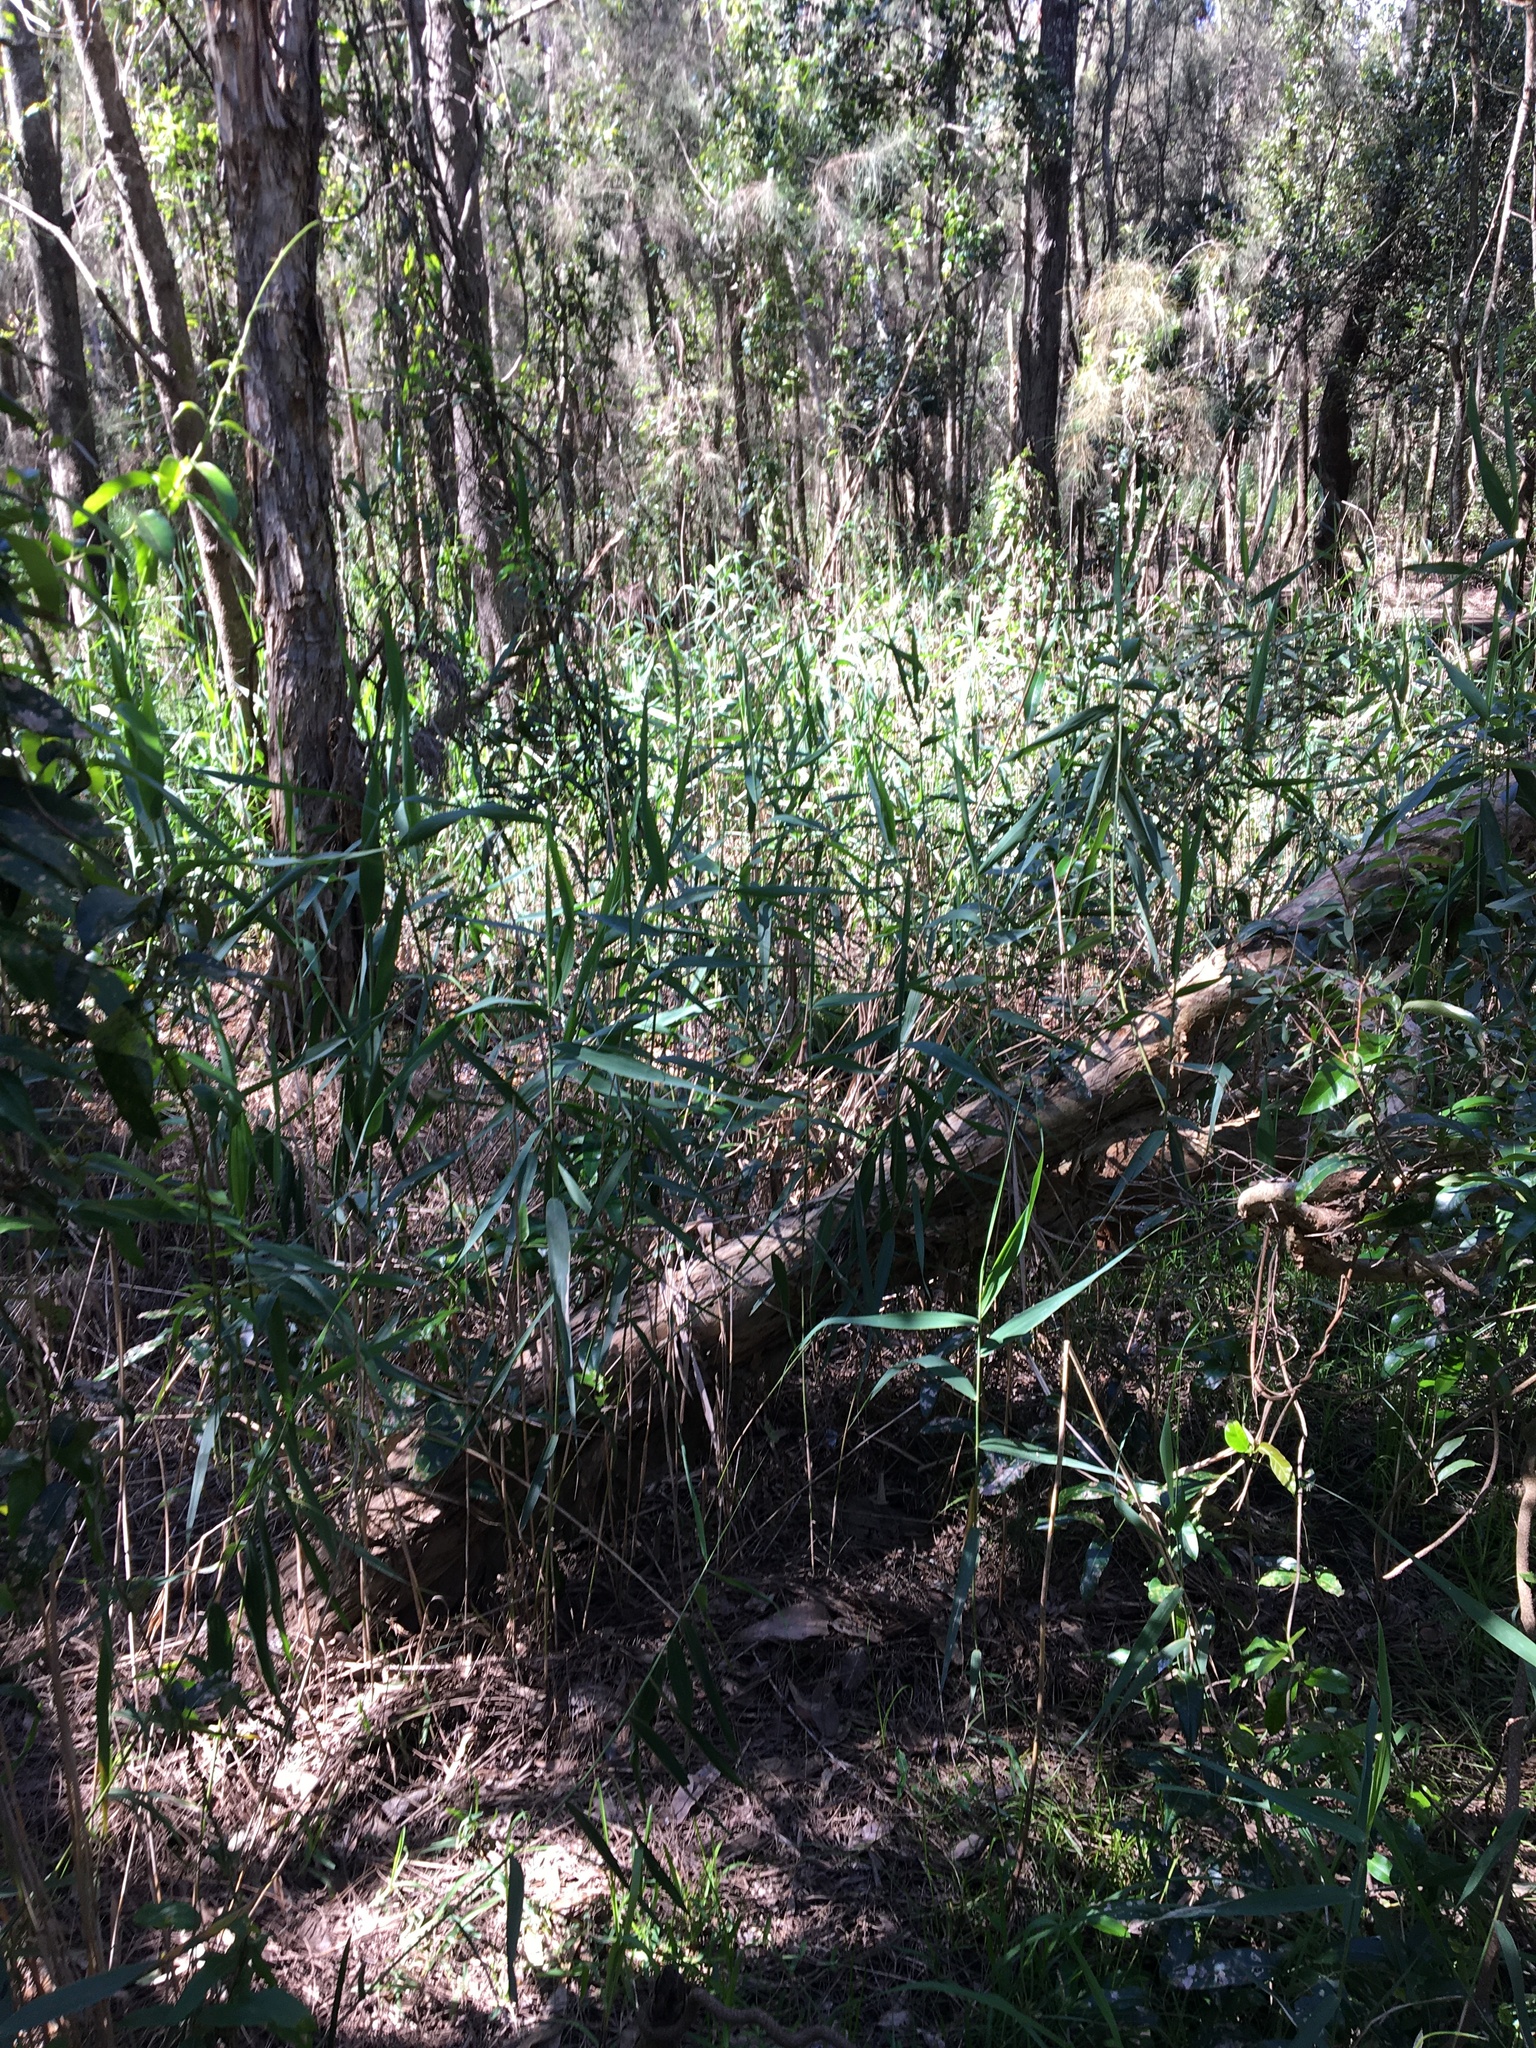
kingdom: Plantae
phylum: Tracheophyta
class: Liliopsida
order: Poales
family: Poaceae
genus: Phragmites
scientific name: Phragmites australis
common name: Common reed
